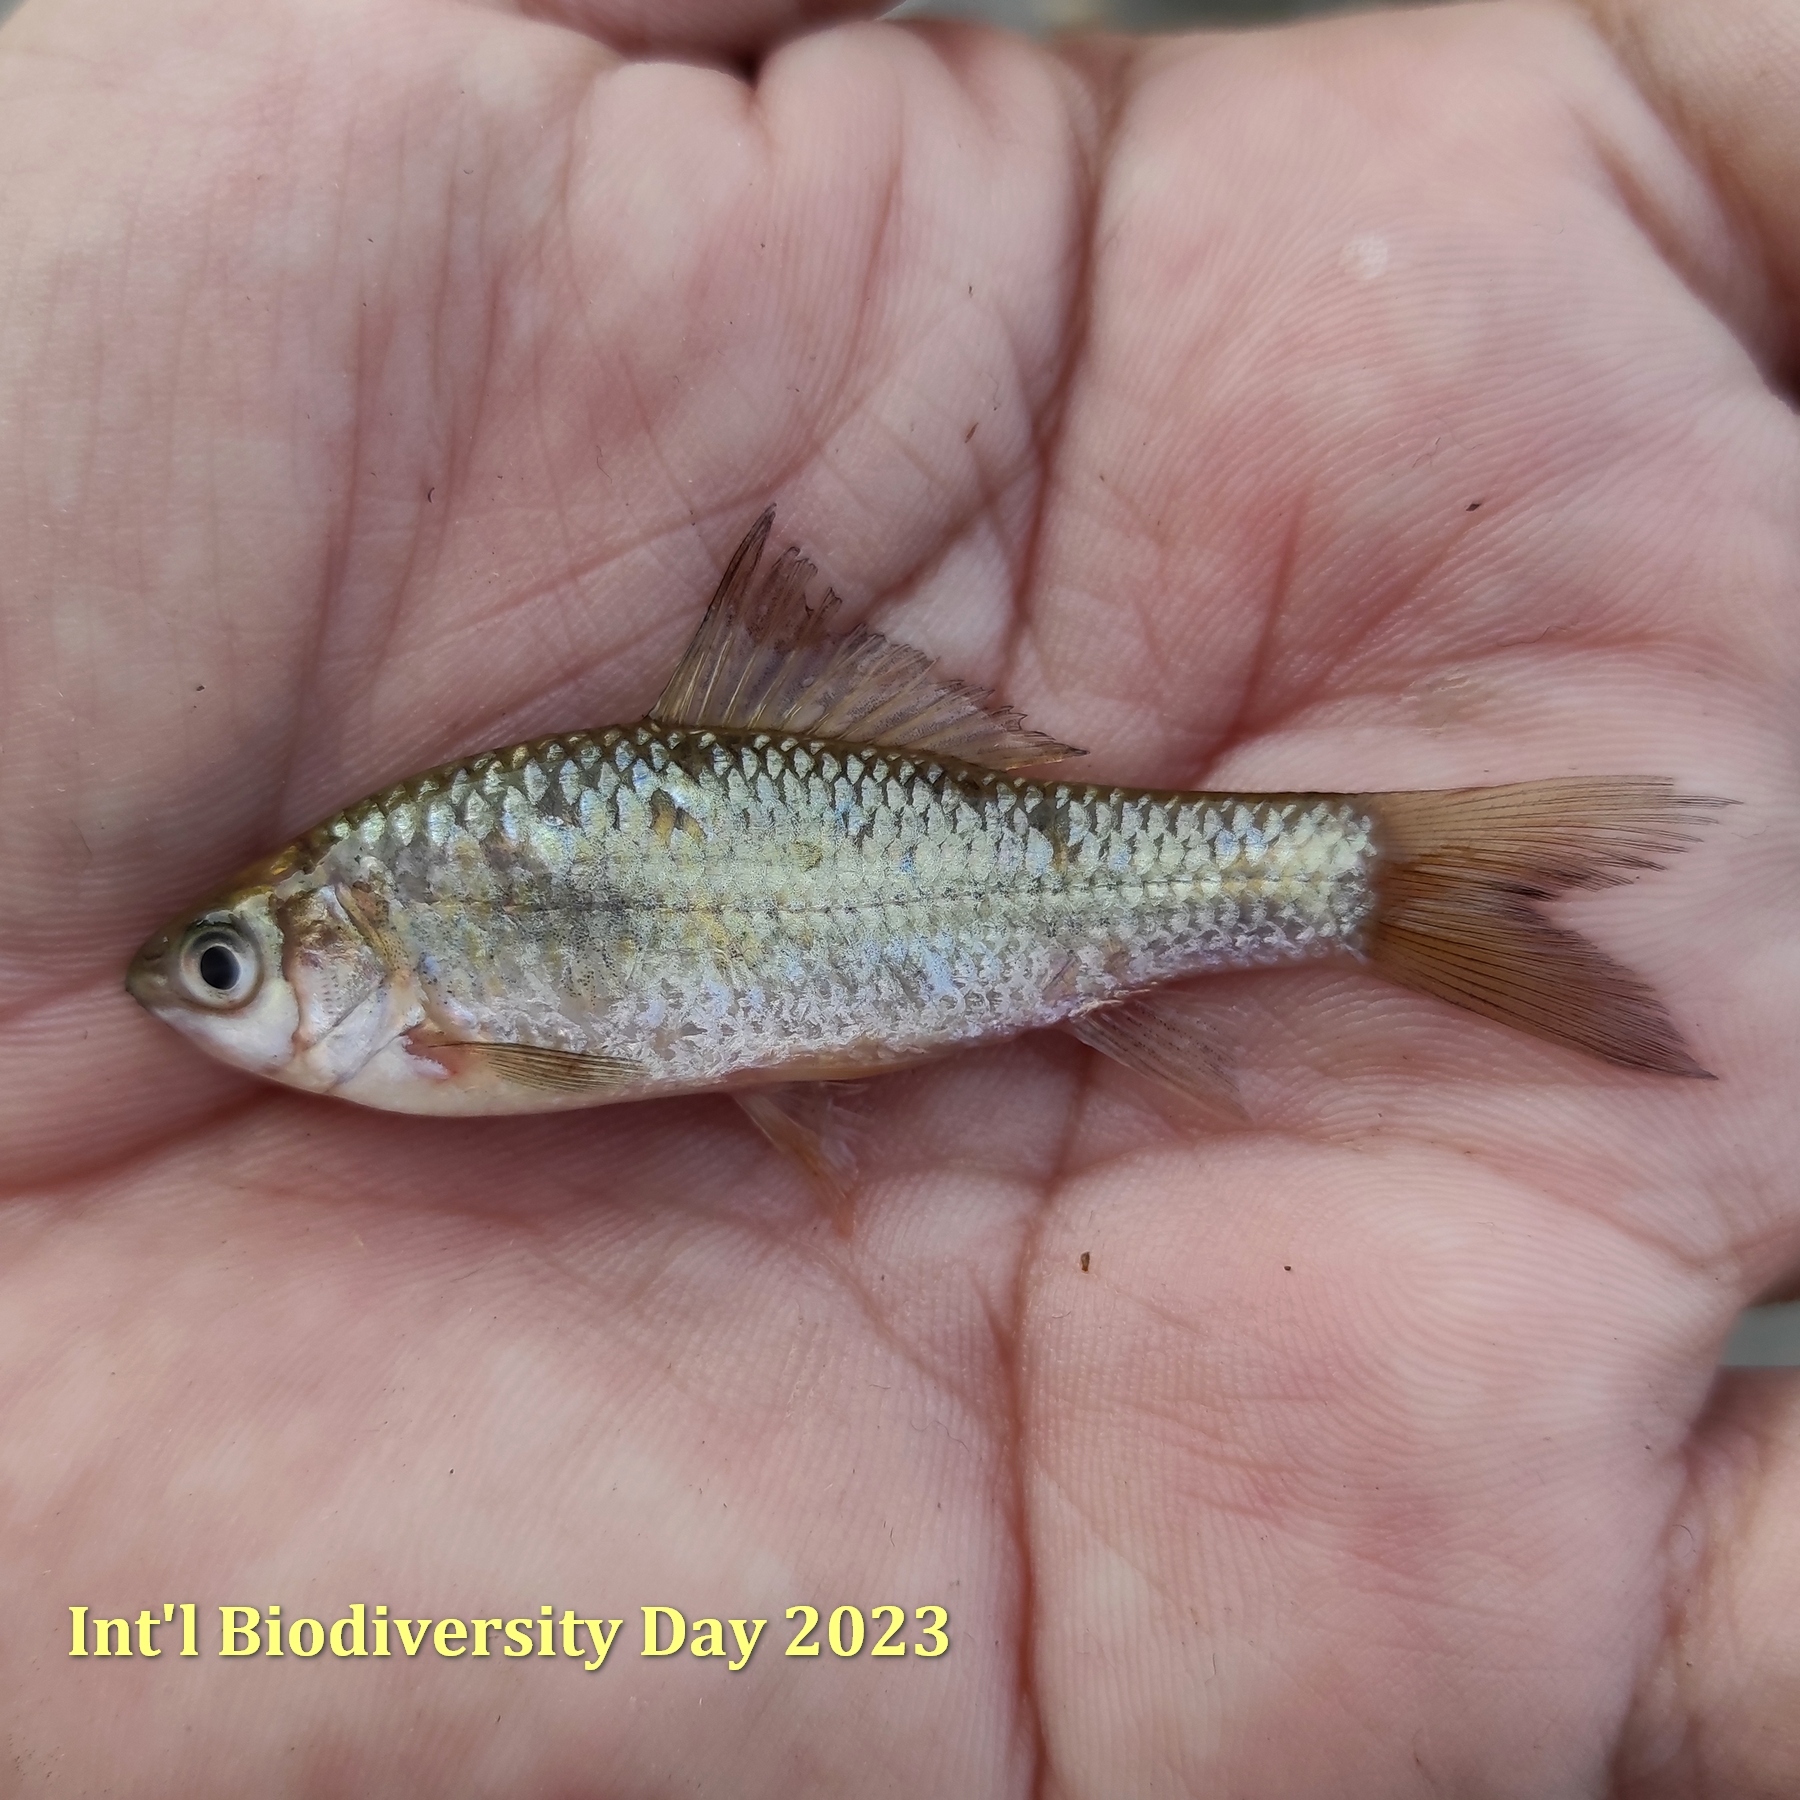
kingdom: Animalia
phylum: Chordata
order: Cypriniformes
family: Cyprinidae
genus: Osteochilus
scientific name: Osteochilus vittatus
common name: Silver sharkminnow
